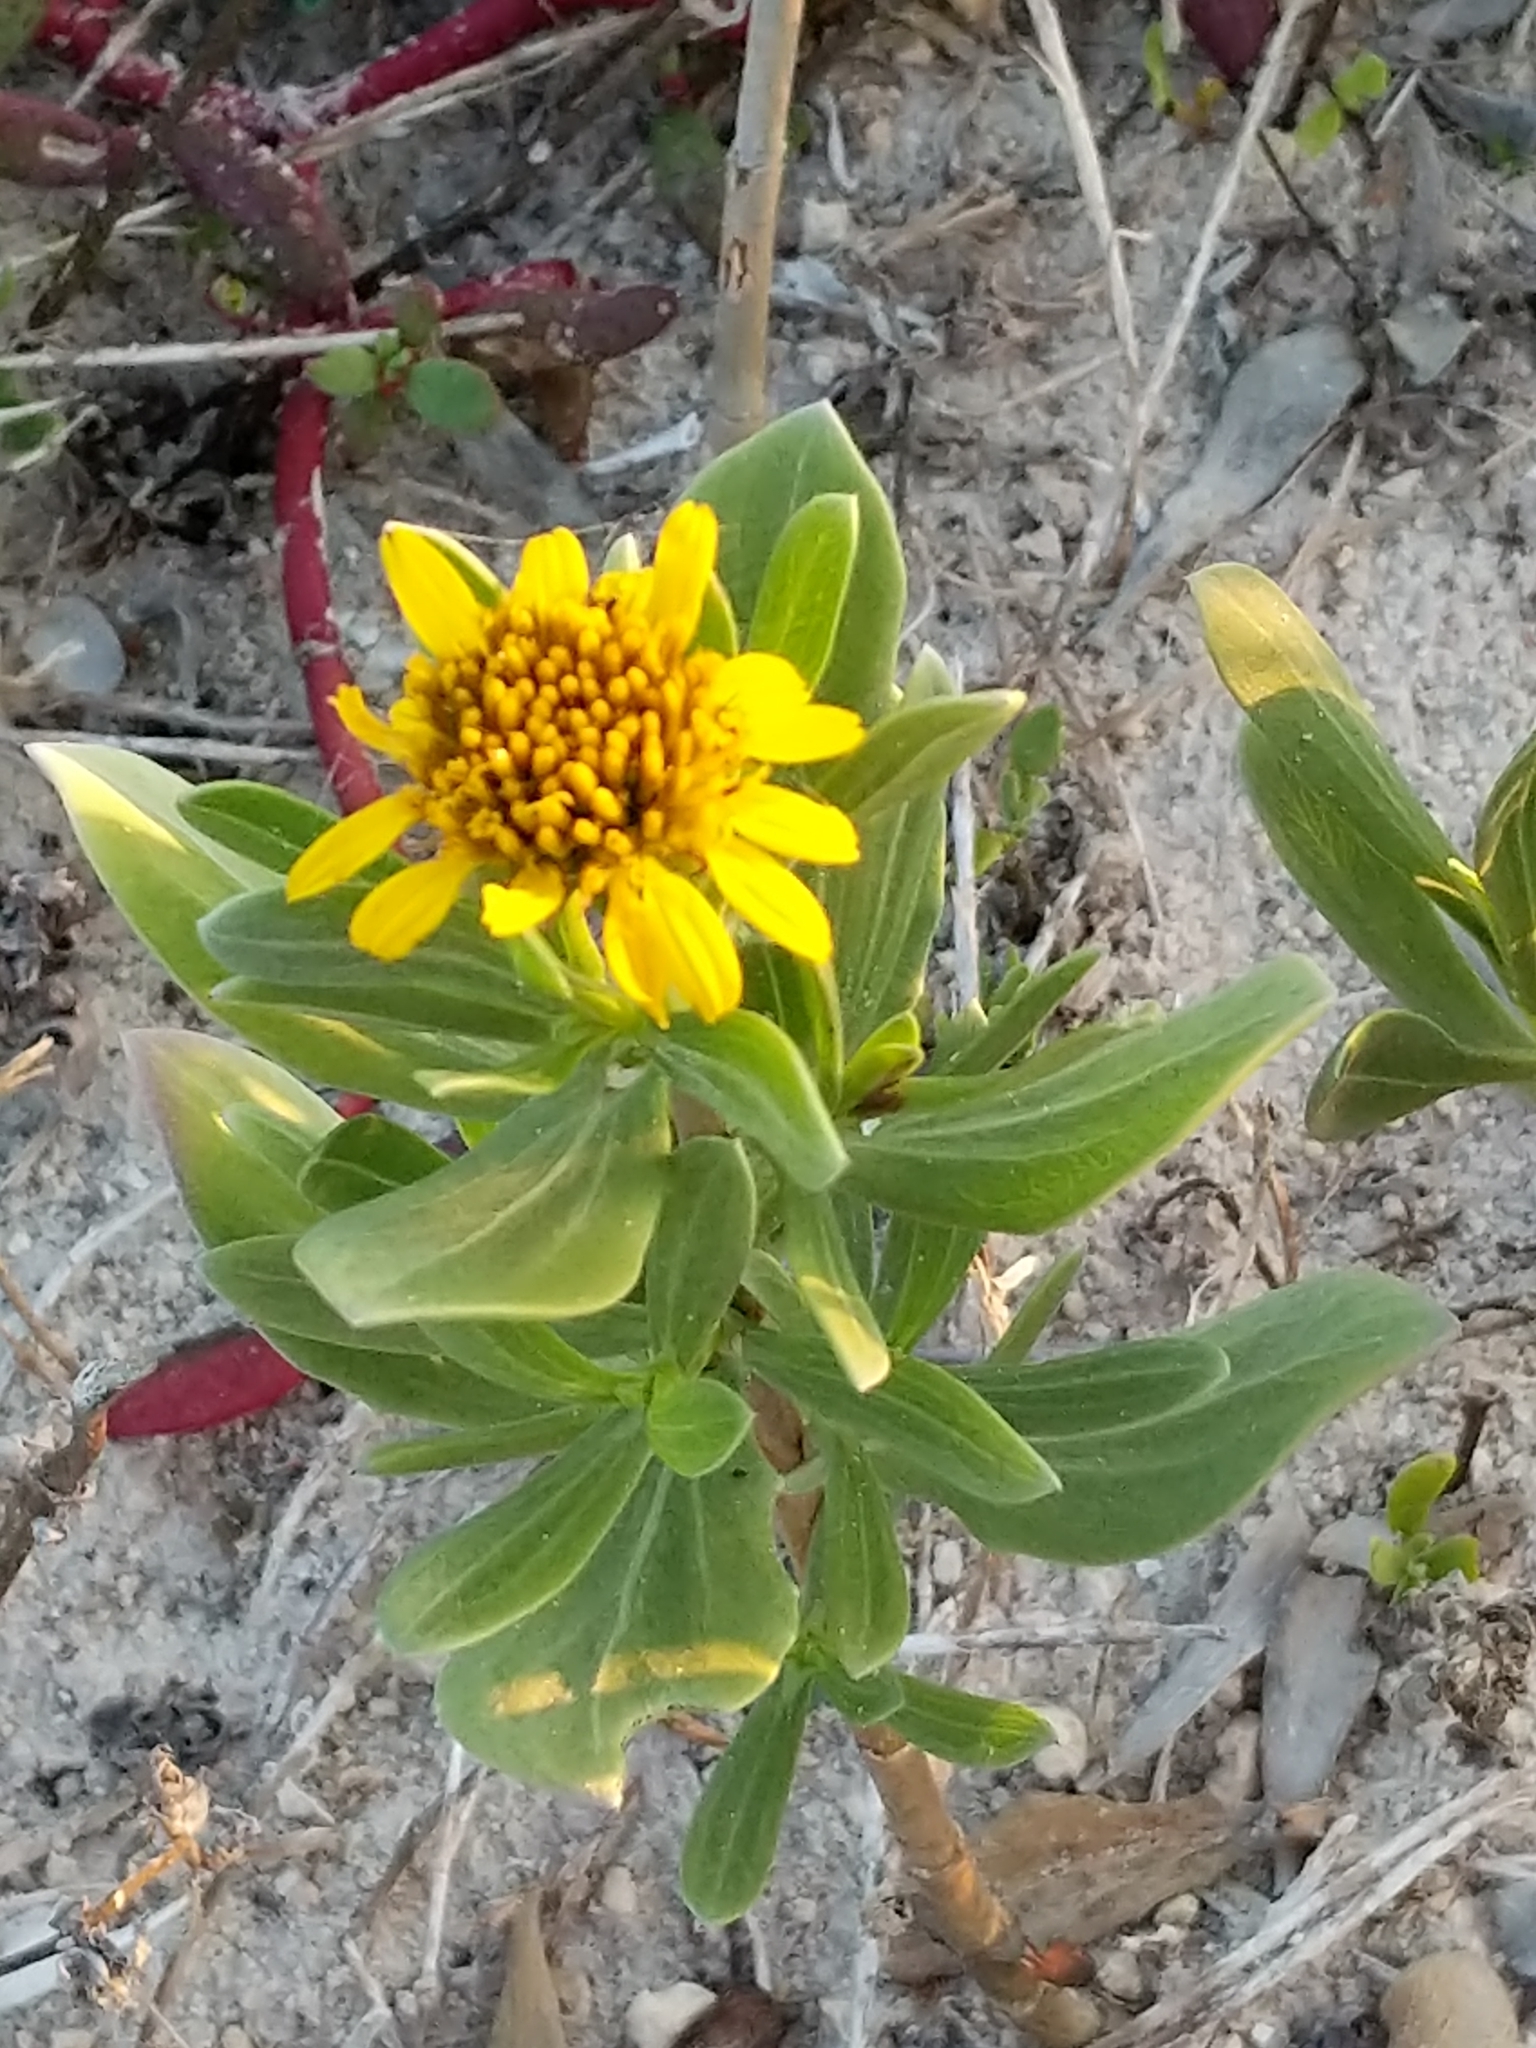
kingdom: Plantae
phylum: Tracheophyta
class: Magnoliopsida
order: Asterales
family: Asteraceae
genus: Borrichia
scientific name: Borrichia frutescens
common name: Sea oxeye
